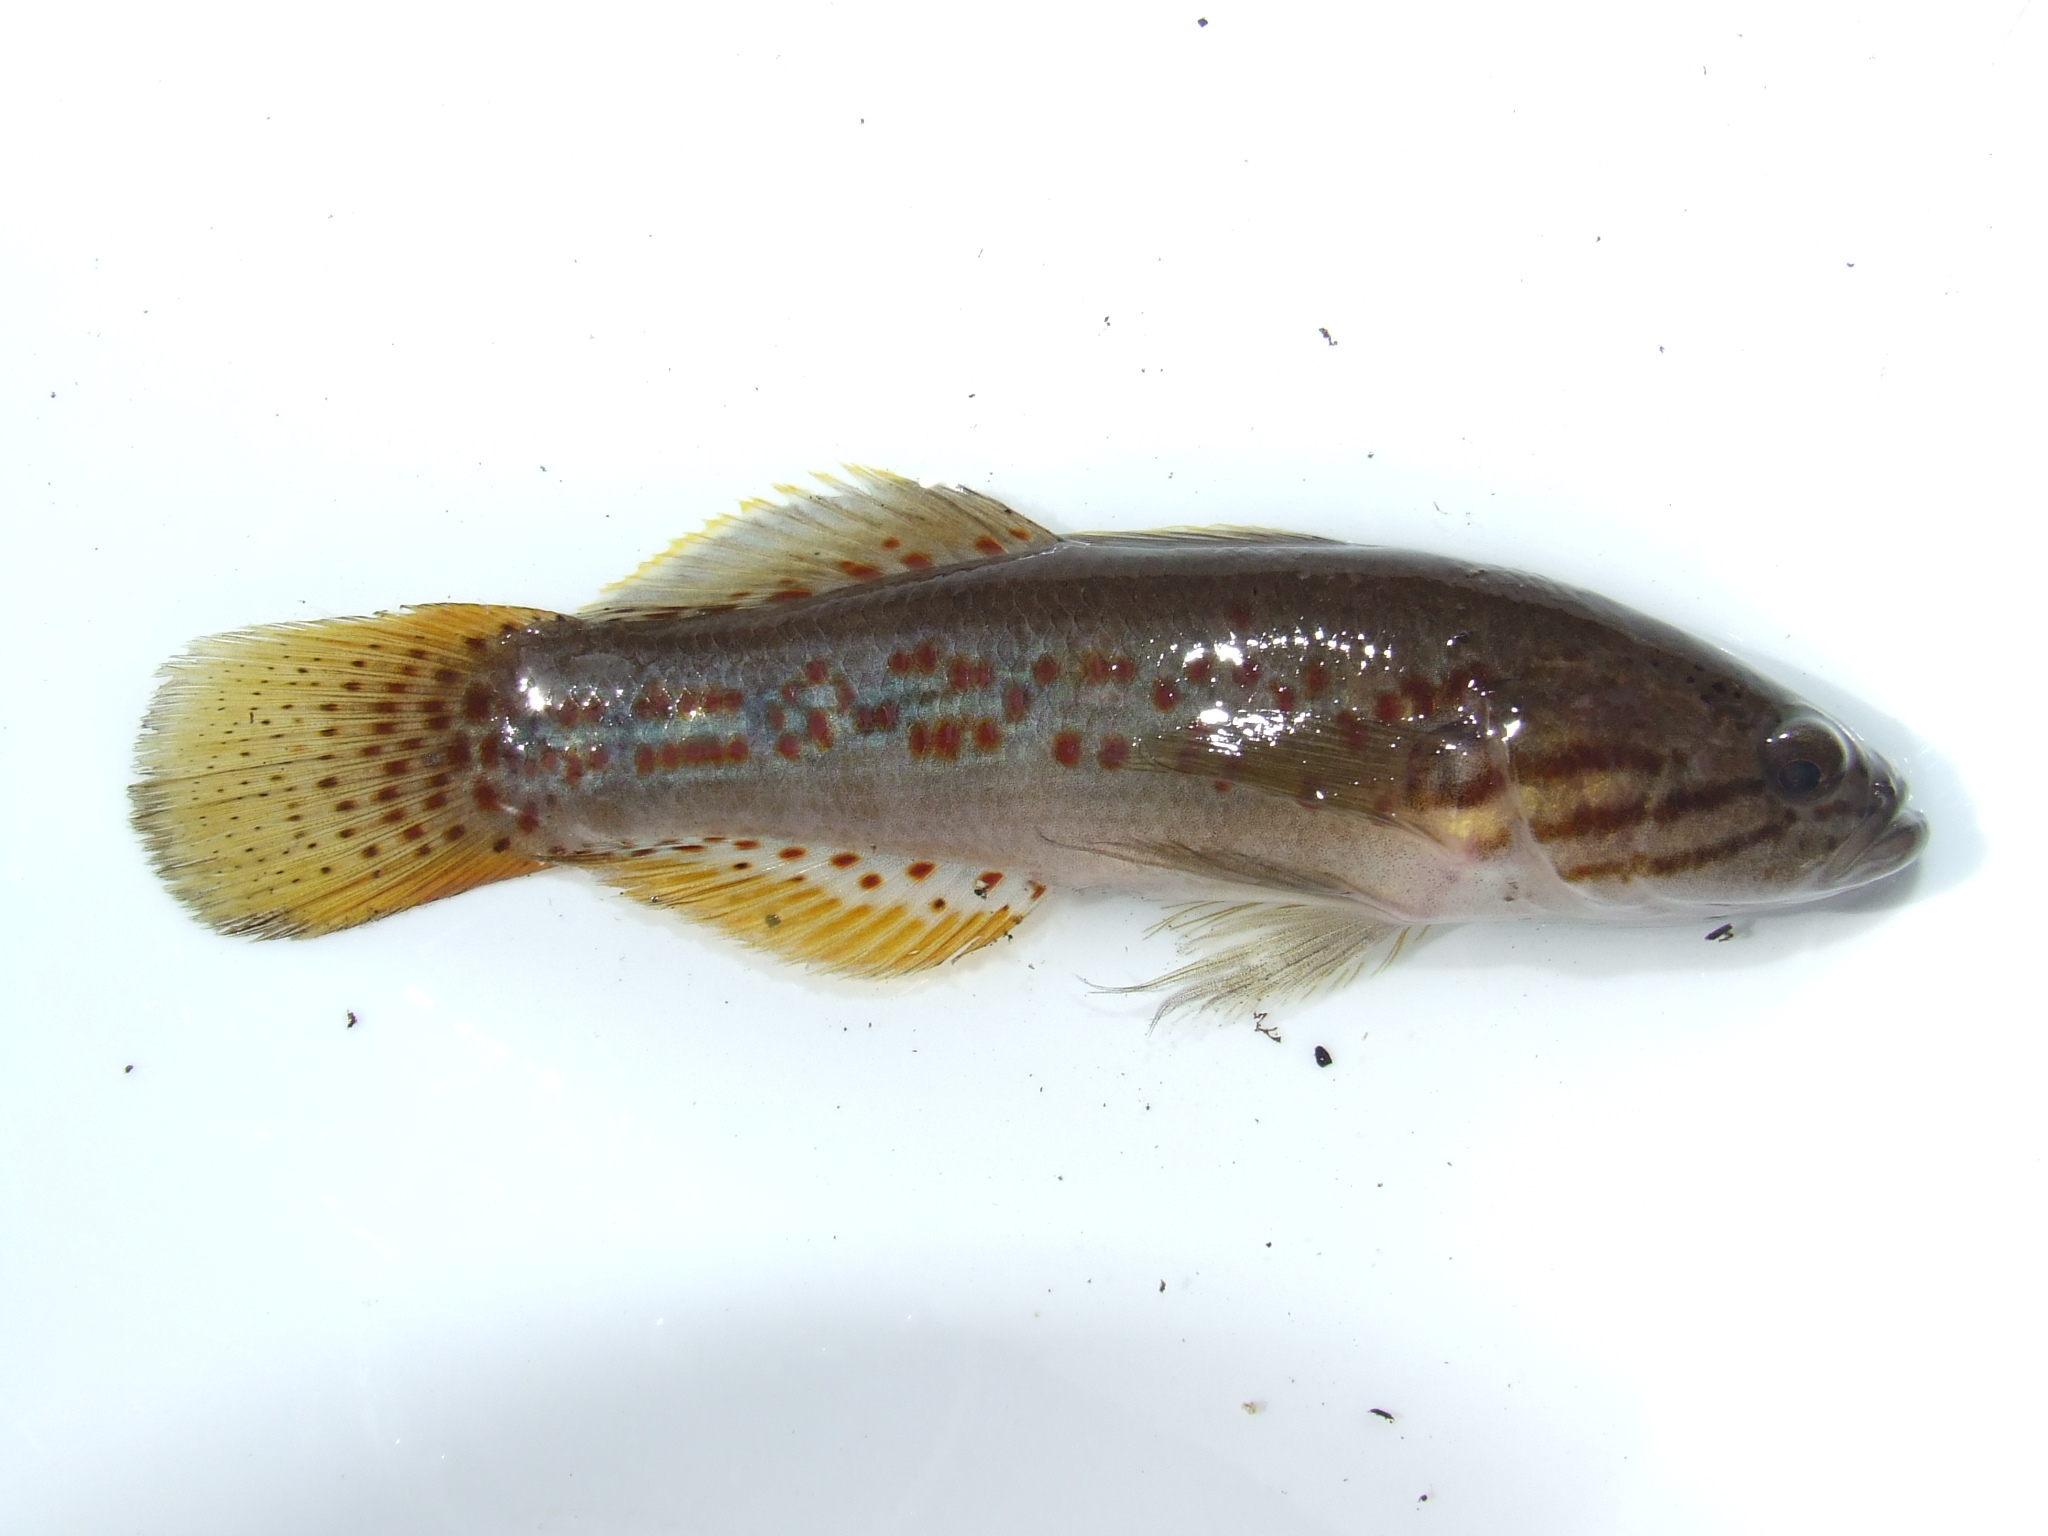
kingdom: Animalia
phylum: Chordata
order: Perciformes
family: Eleotridae
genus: Mogurnda
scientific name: Mogurnda mogurnda
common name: Northern purplespotted gudgeon
